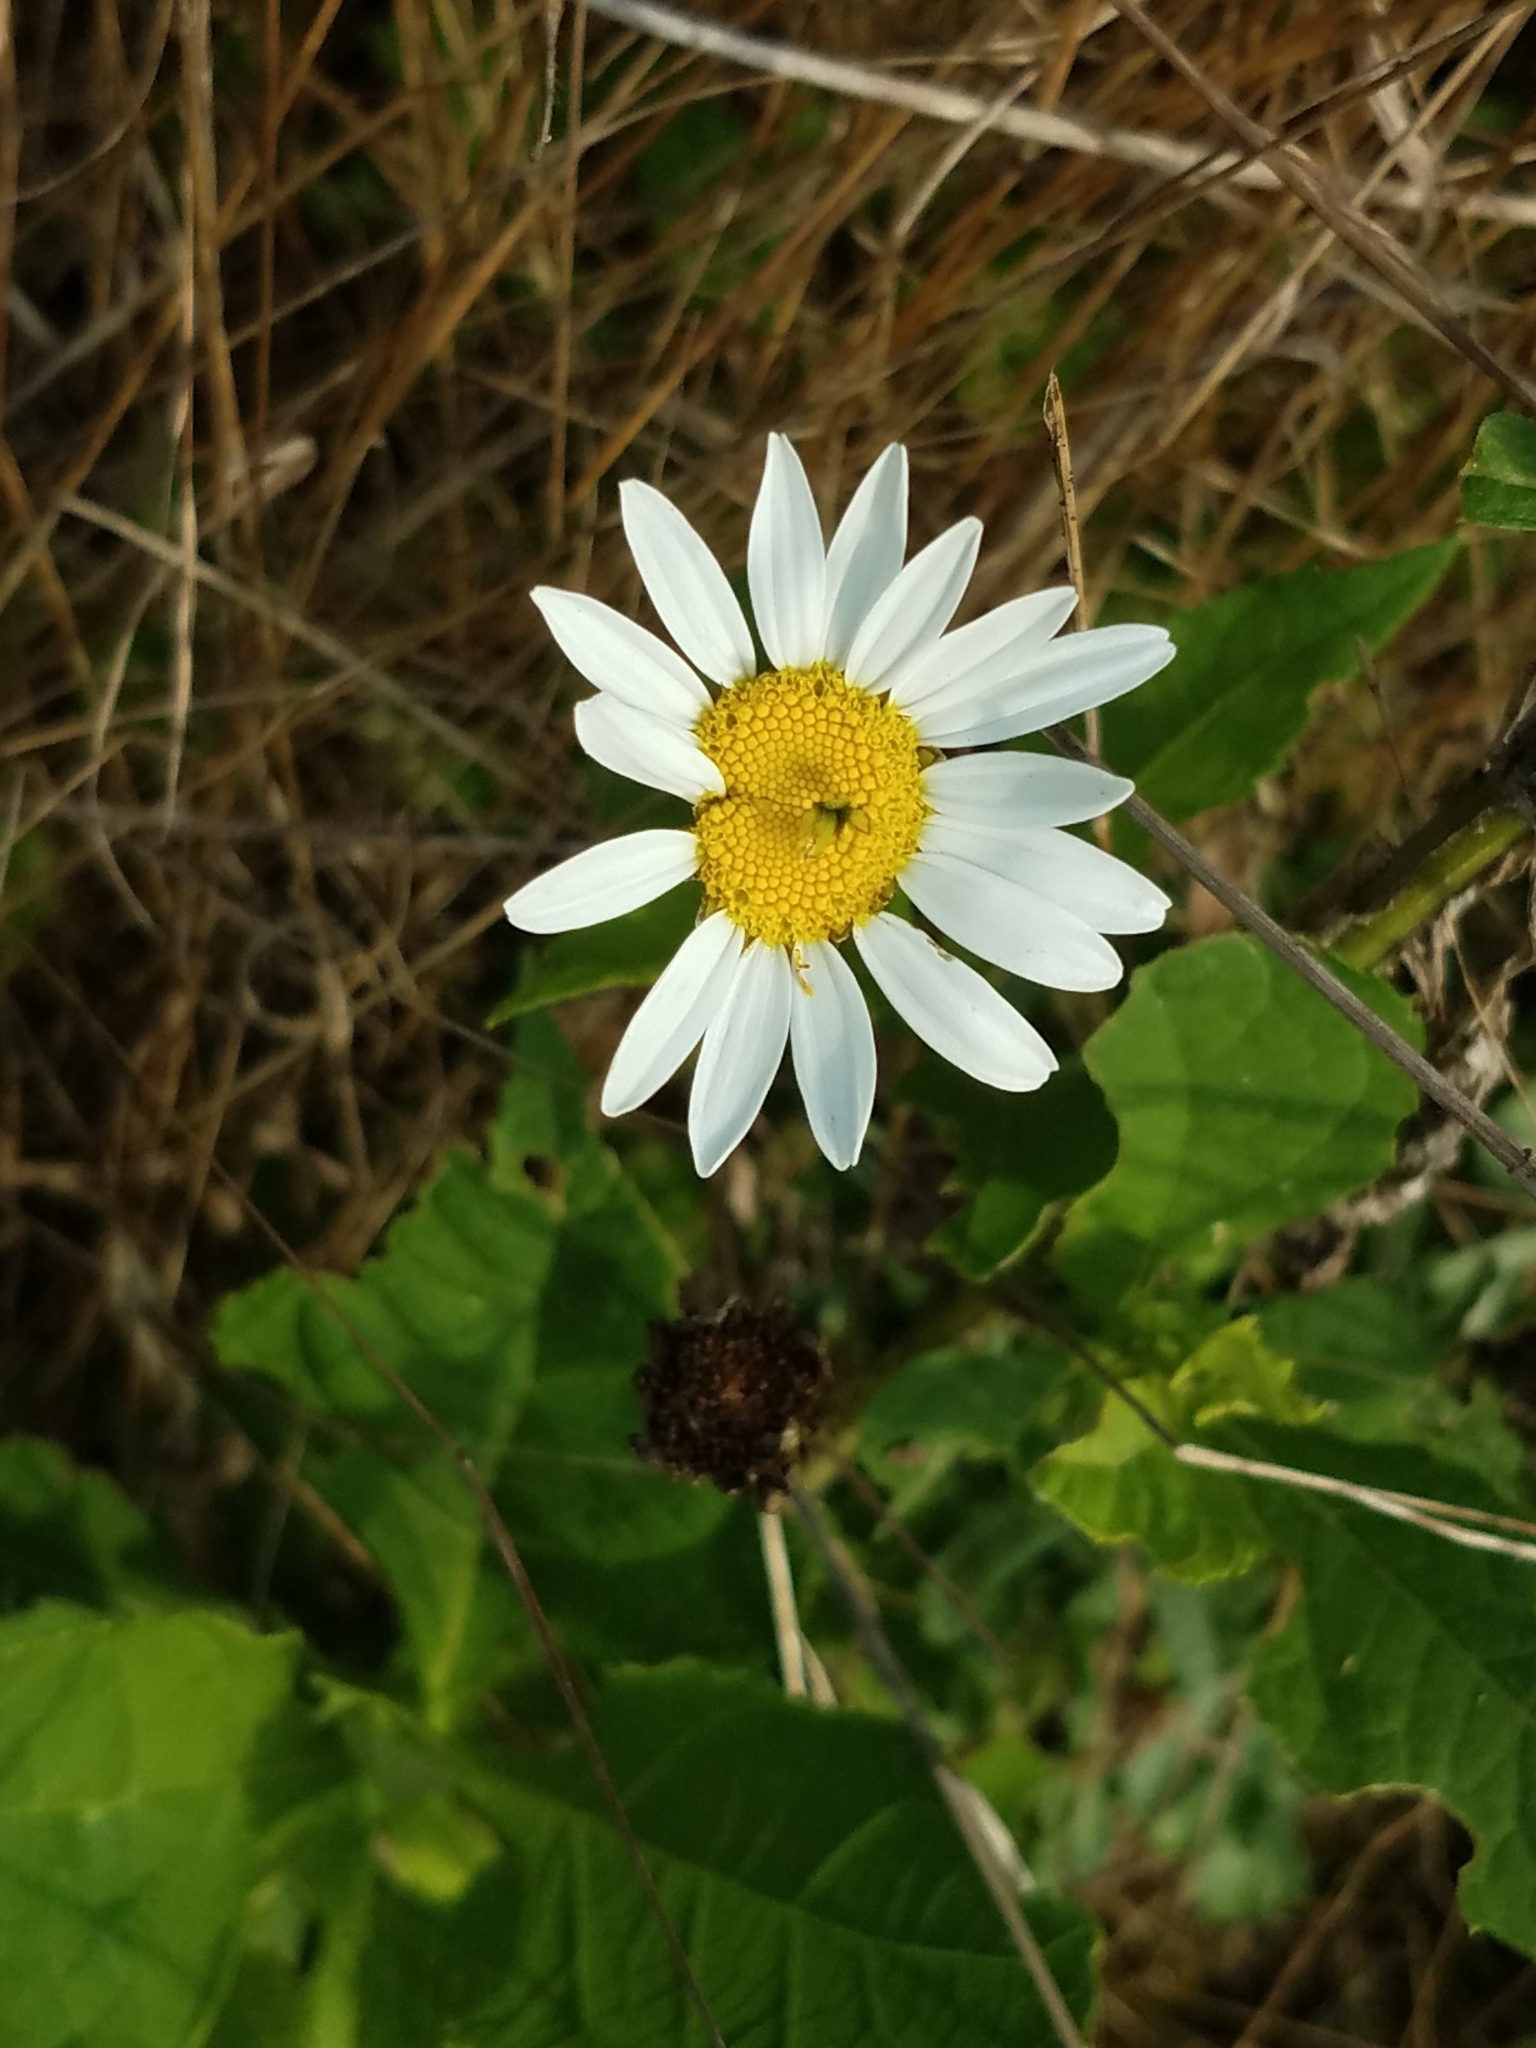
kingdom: Plantae
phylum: Tracheophyta
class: Magnoliopsida
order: Asterales
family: Asteraceae
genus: Leucanthemum
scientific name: Leucanthemum vulgare
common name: Oxeye daisy
